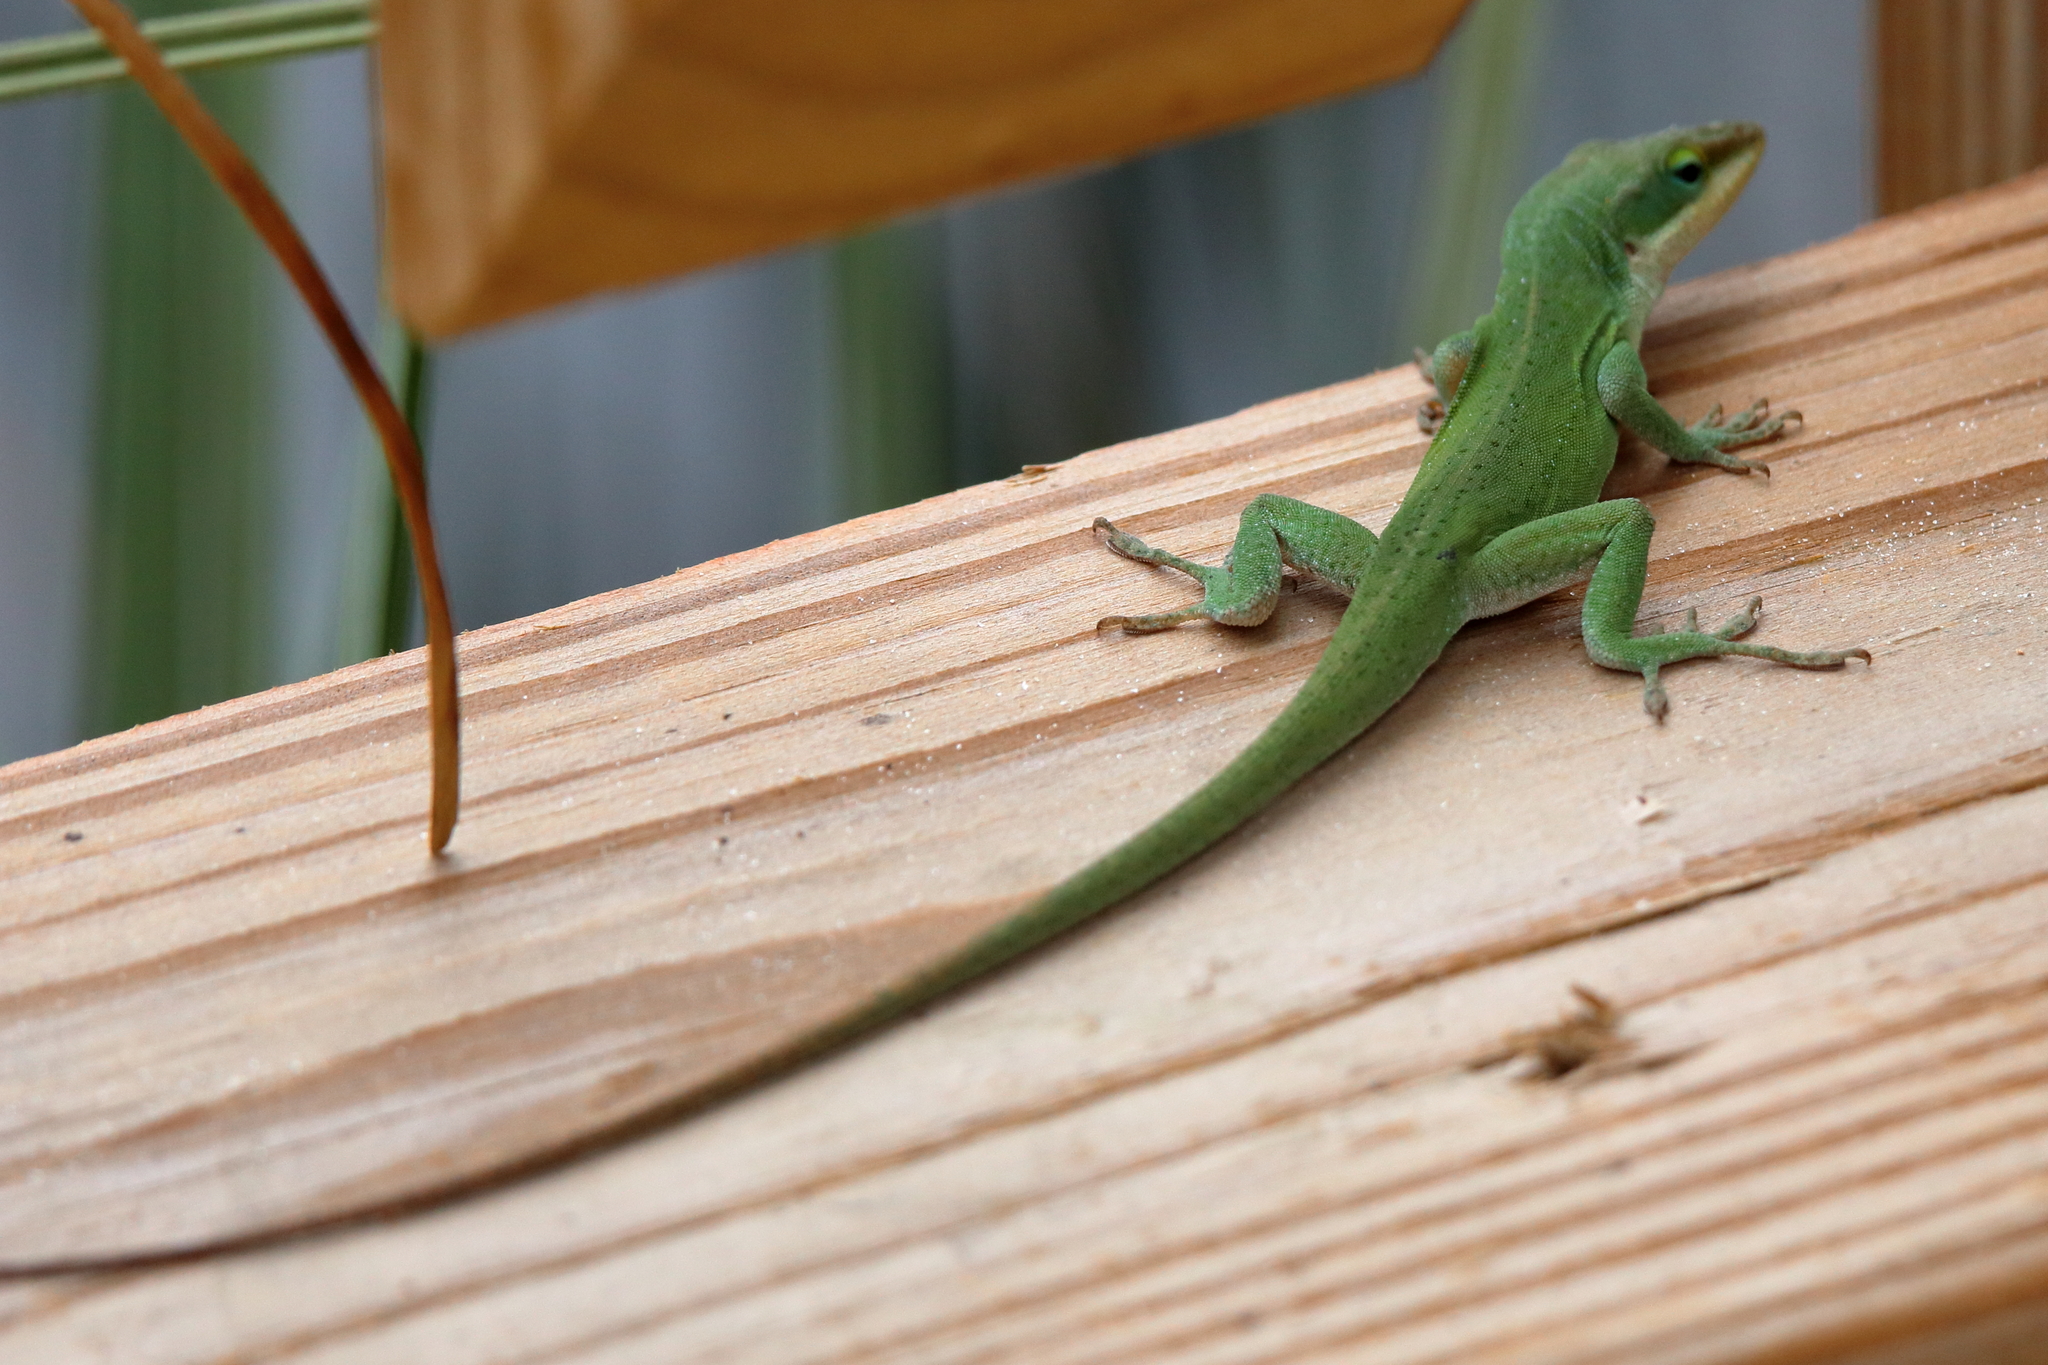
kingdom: Animalia
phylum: Chordata
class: Squamata
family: Dactyloidae
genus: Anolis
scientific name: Anolis carolinensis
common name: Green anole
